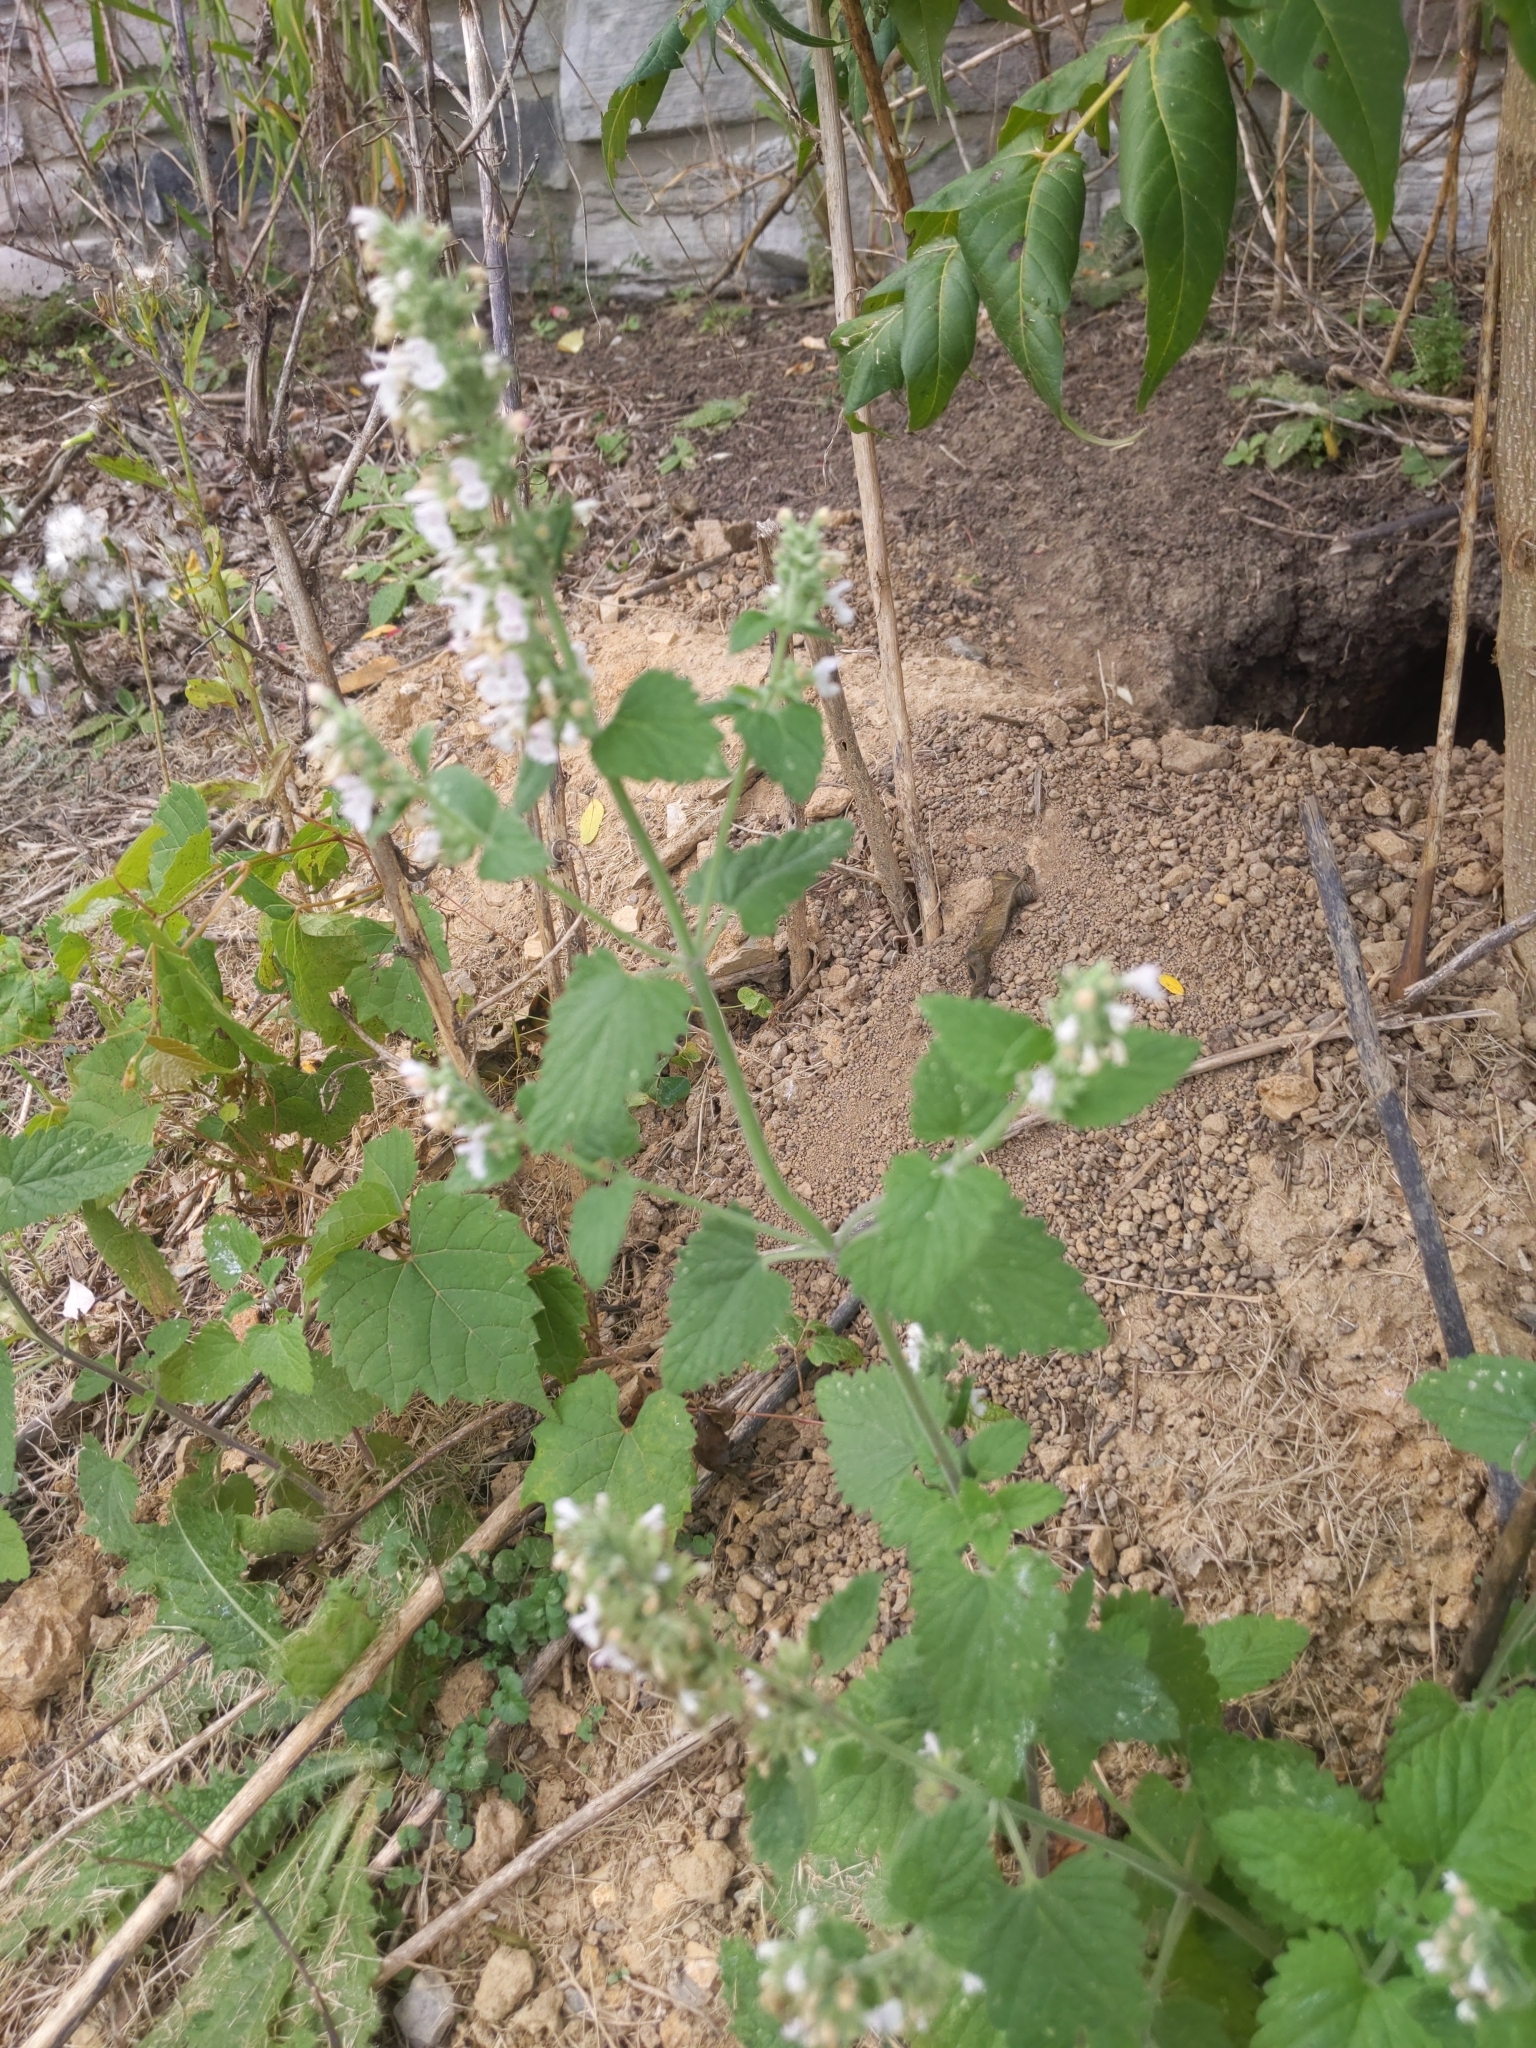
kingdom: Plantae
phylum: Tracheophyta
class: Magnoliopsida
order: Lamiales
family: Lamiaceae
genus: Nepeta
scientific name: Nepeta cataria
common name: Catnip
